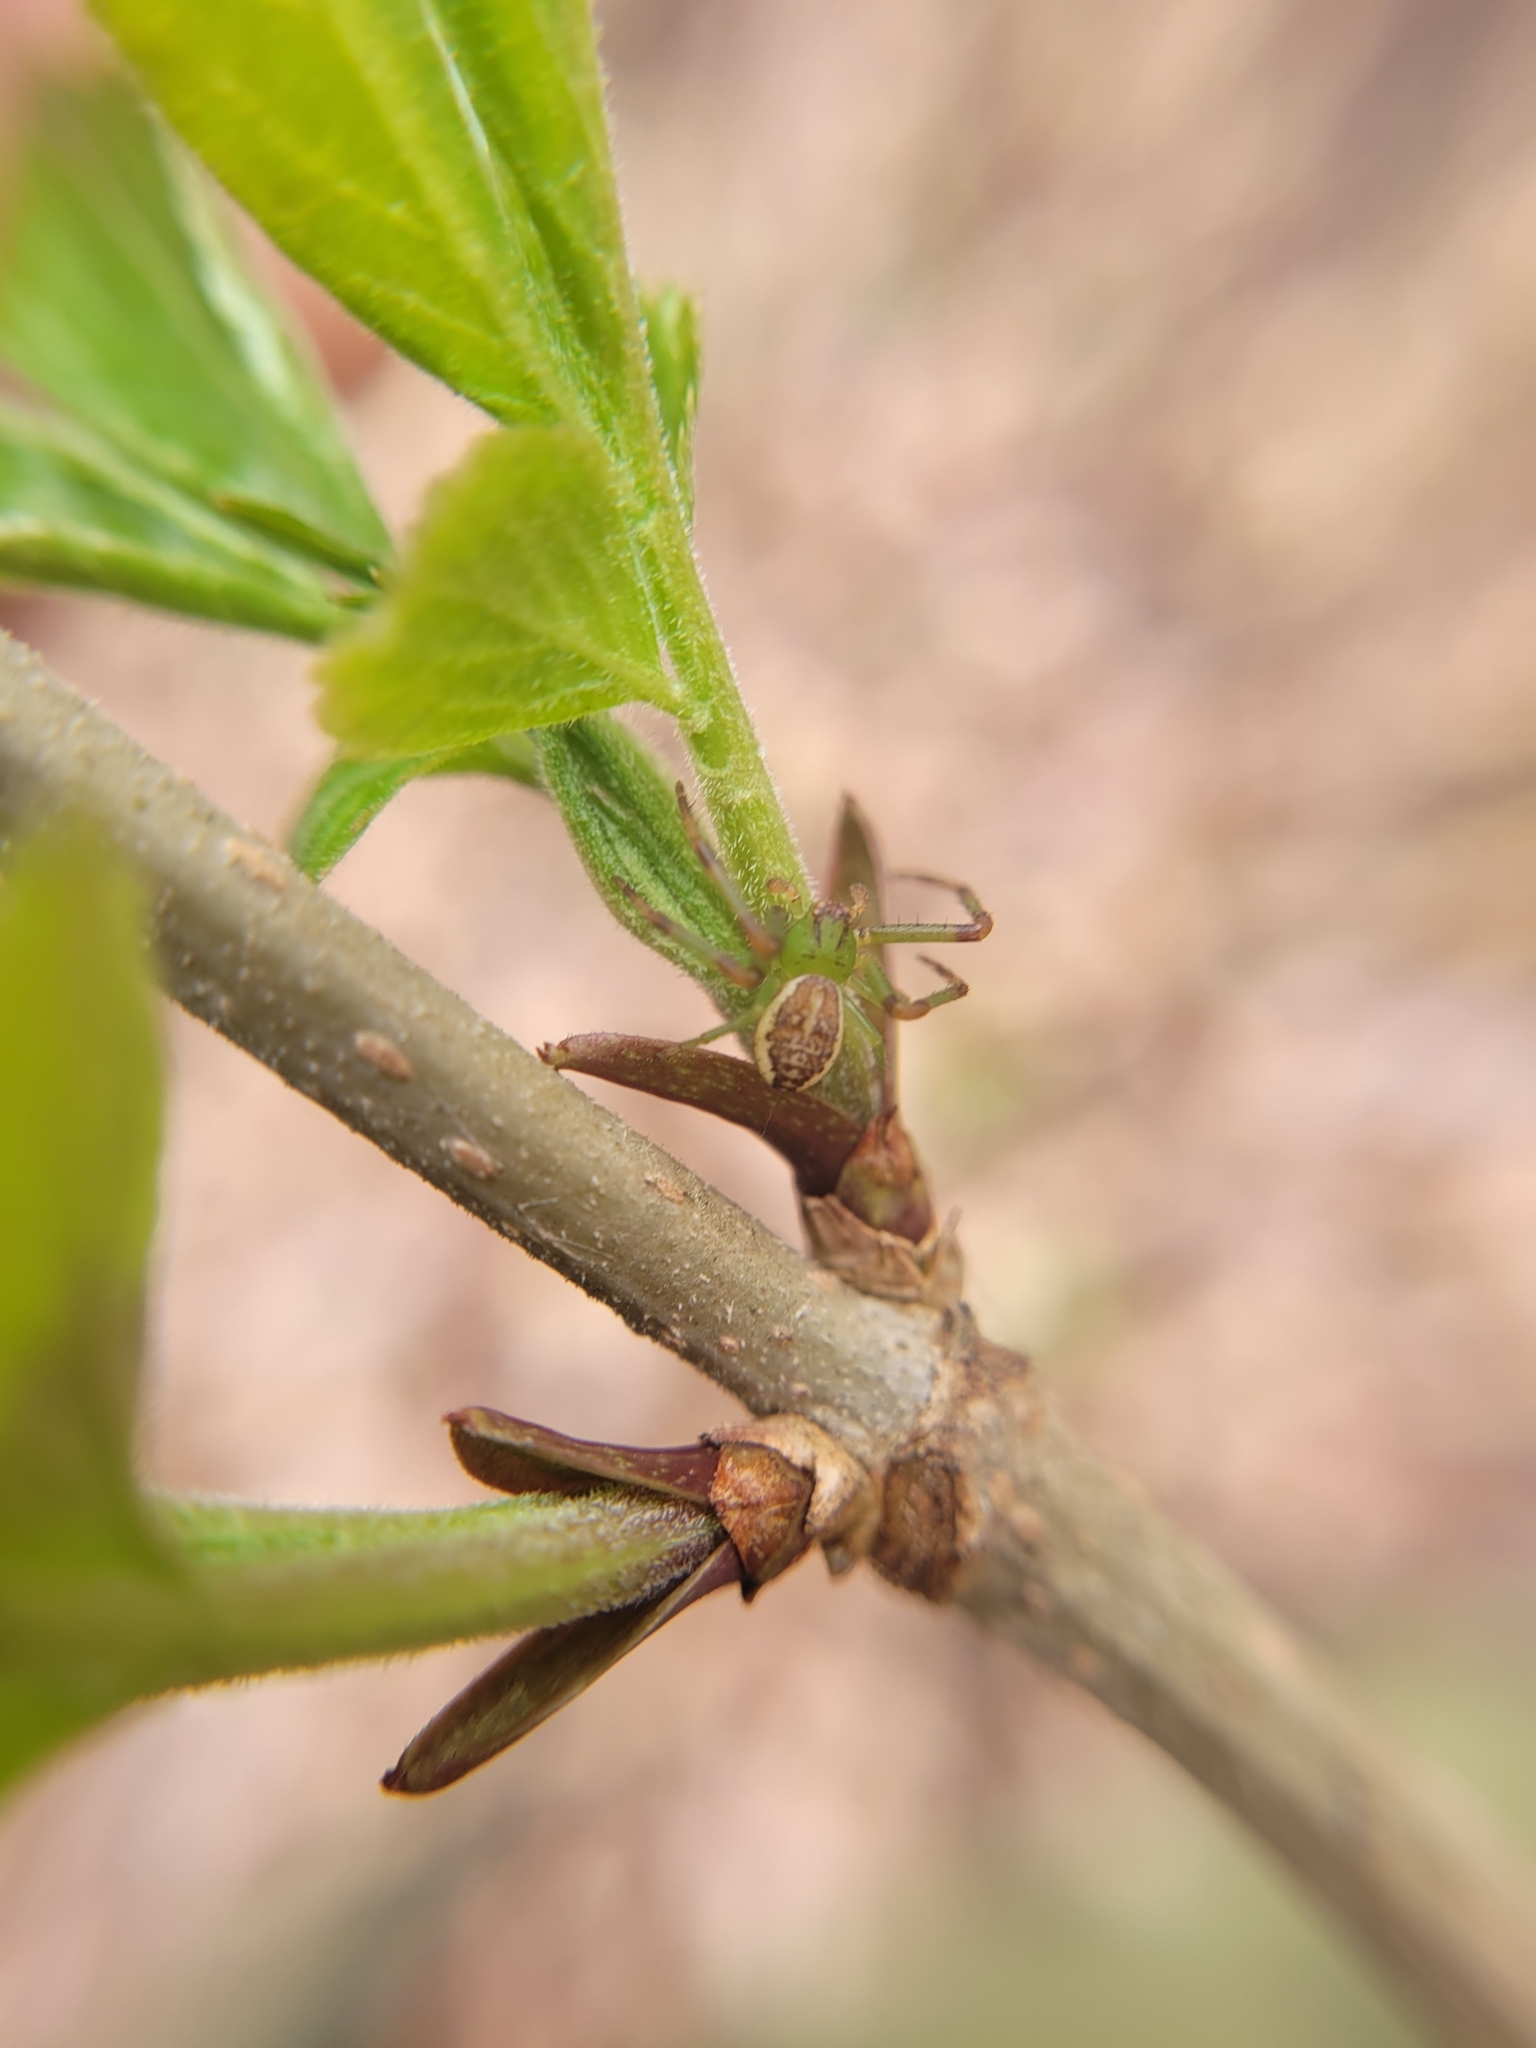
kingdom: Animalia
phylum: Arthropoda
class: Arachnida
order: Araneae
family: Thomisidae
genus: Diaea
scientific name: Diaea dorsata
